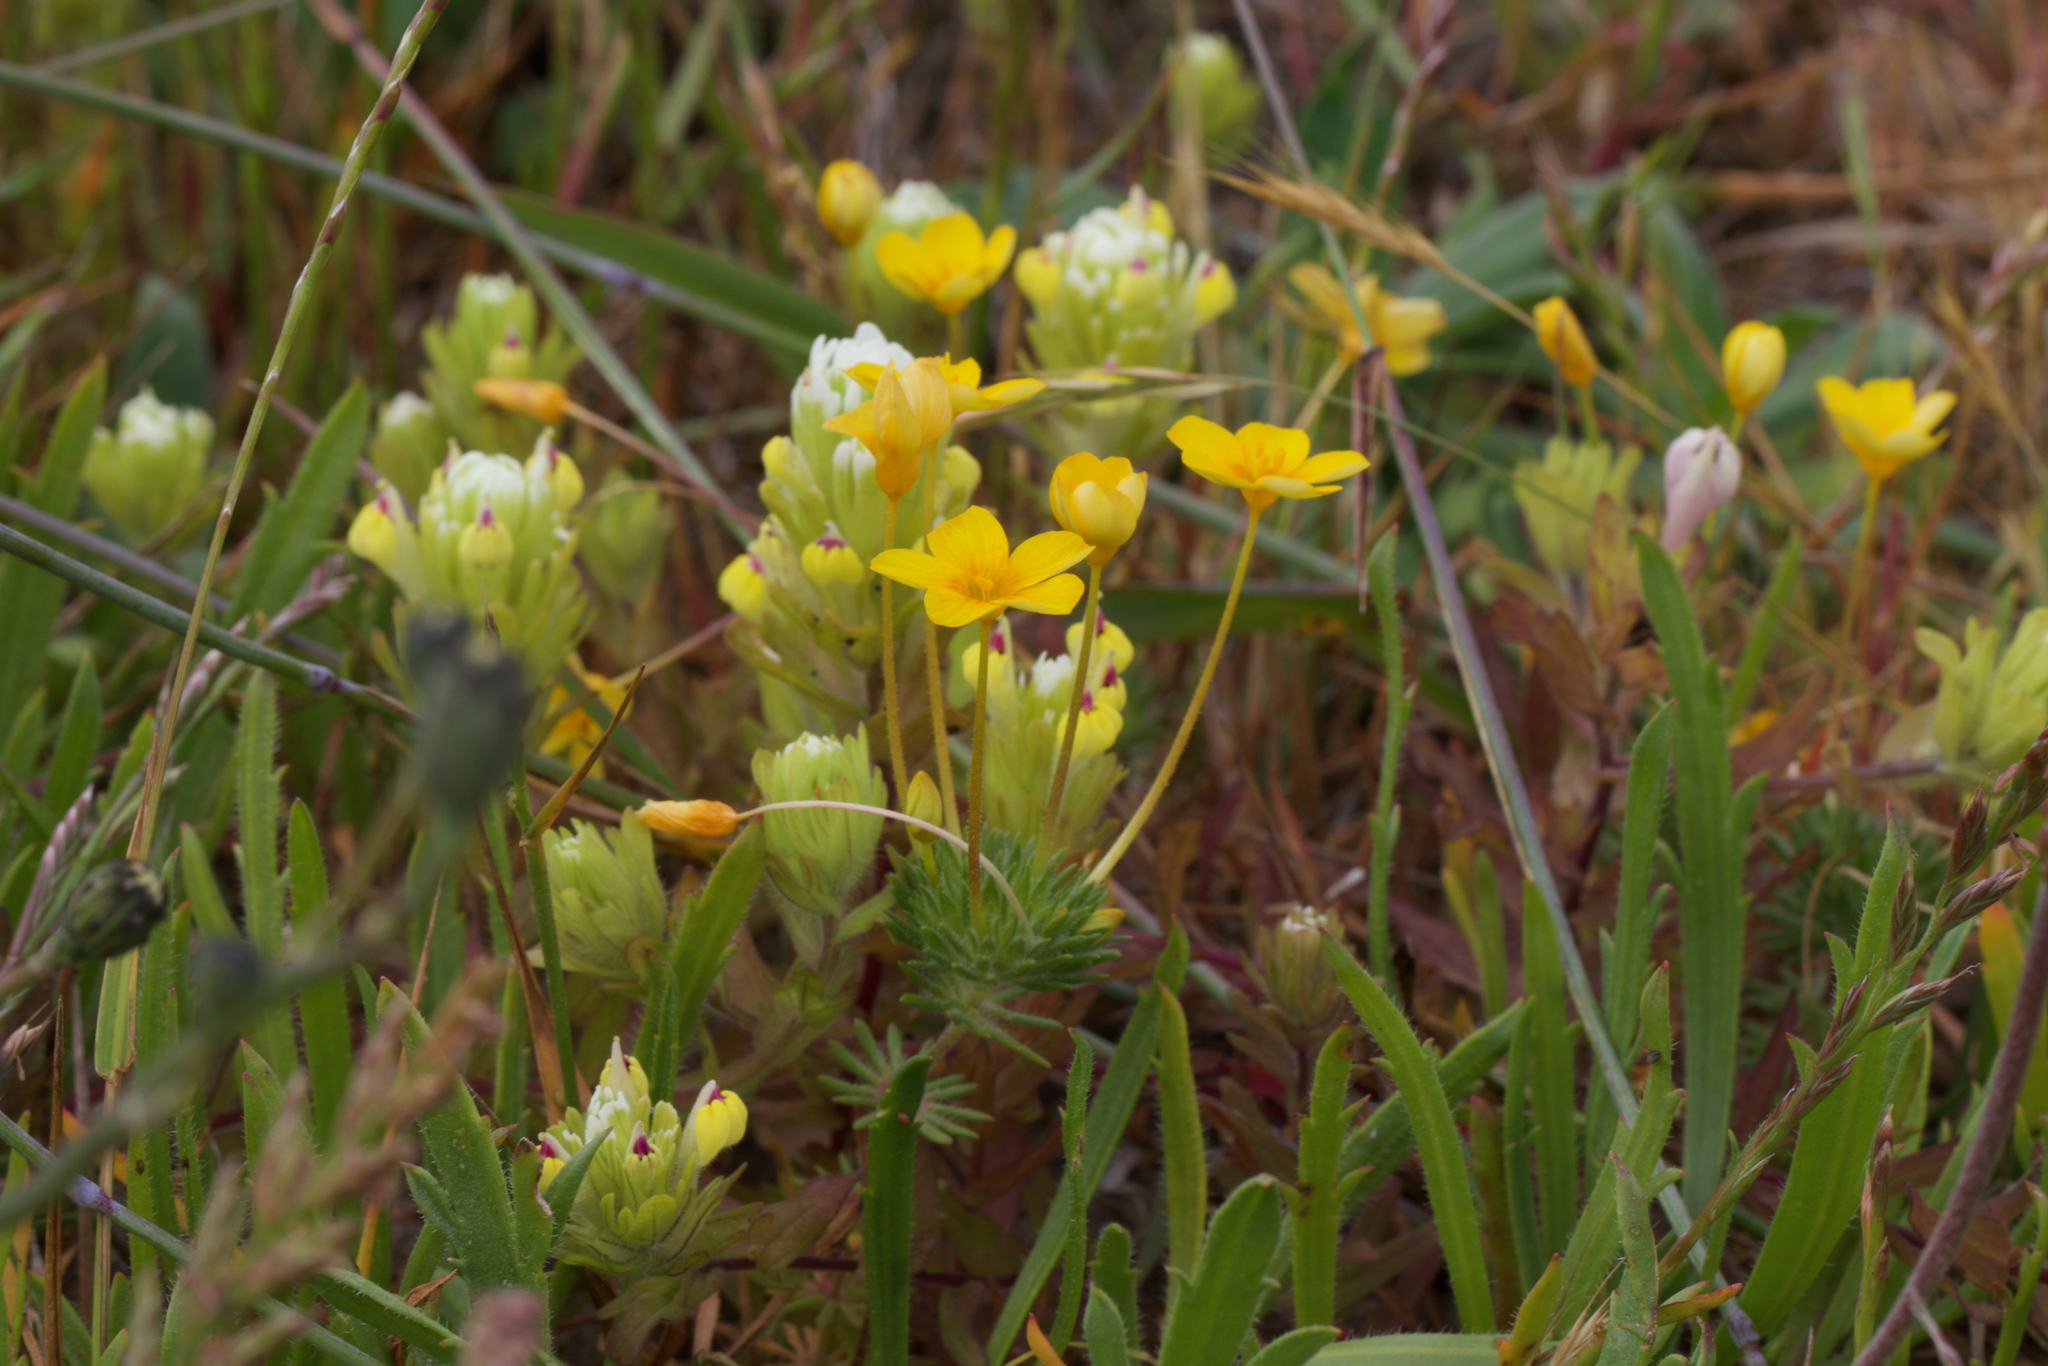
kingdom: Plantae
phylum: Tracheophyta
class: Magnoliopsida
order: Ericales
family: Polemoniaceae
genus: Leptosiphon
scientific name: Leptosiphon croceus
